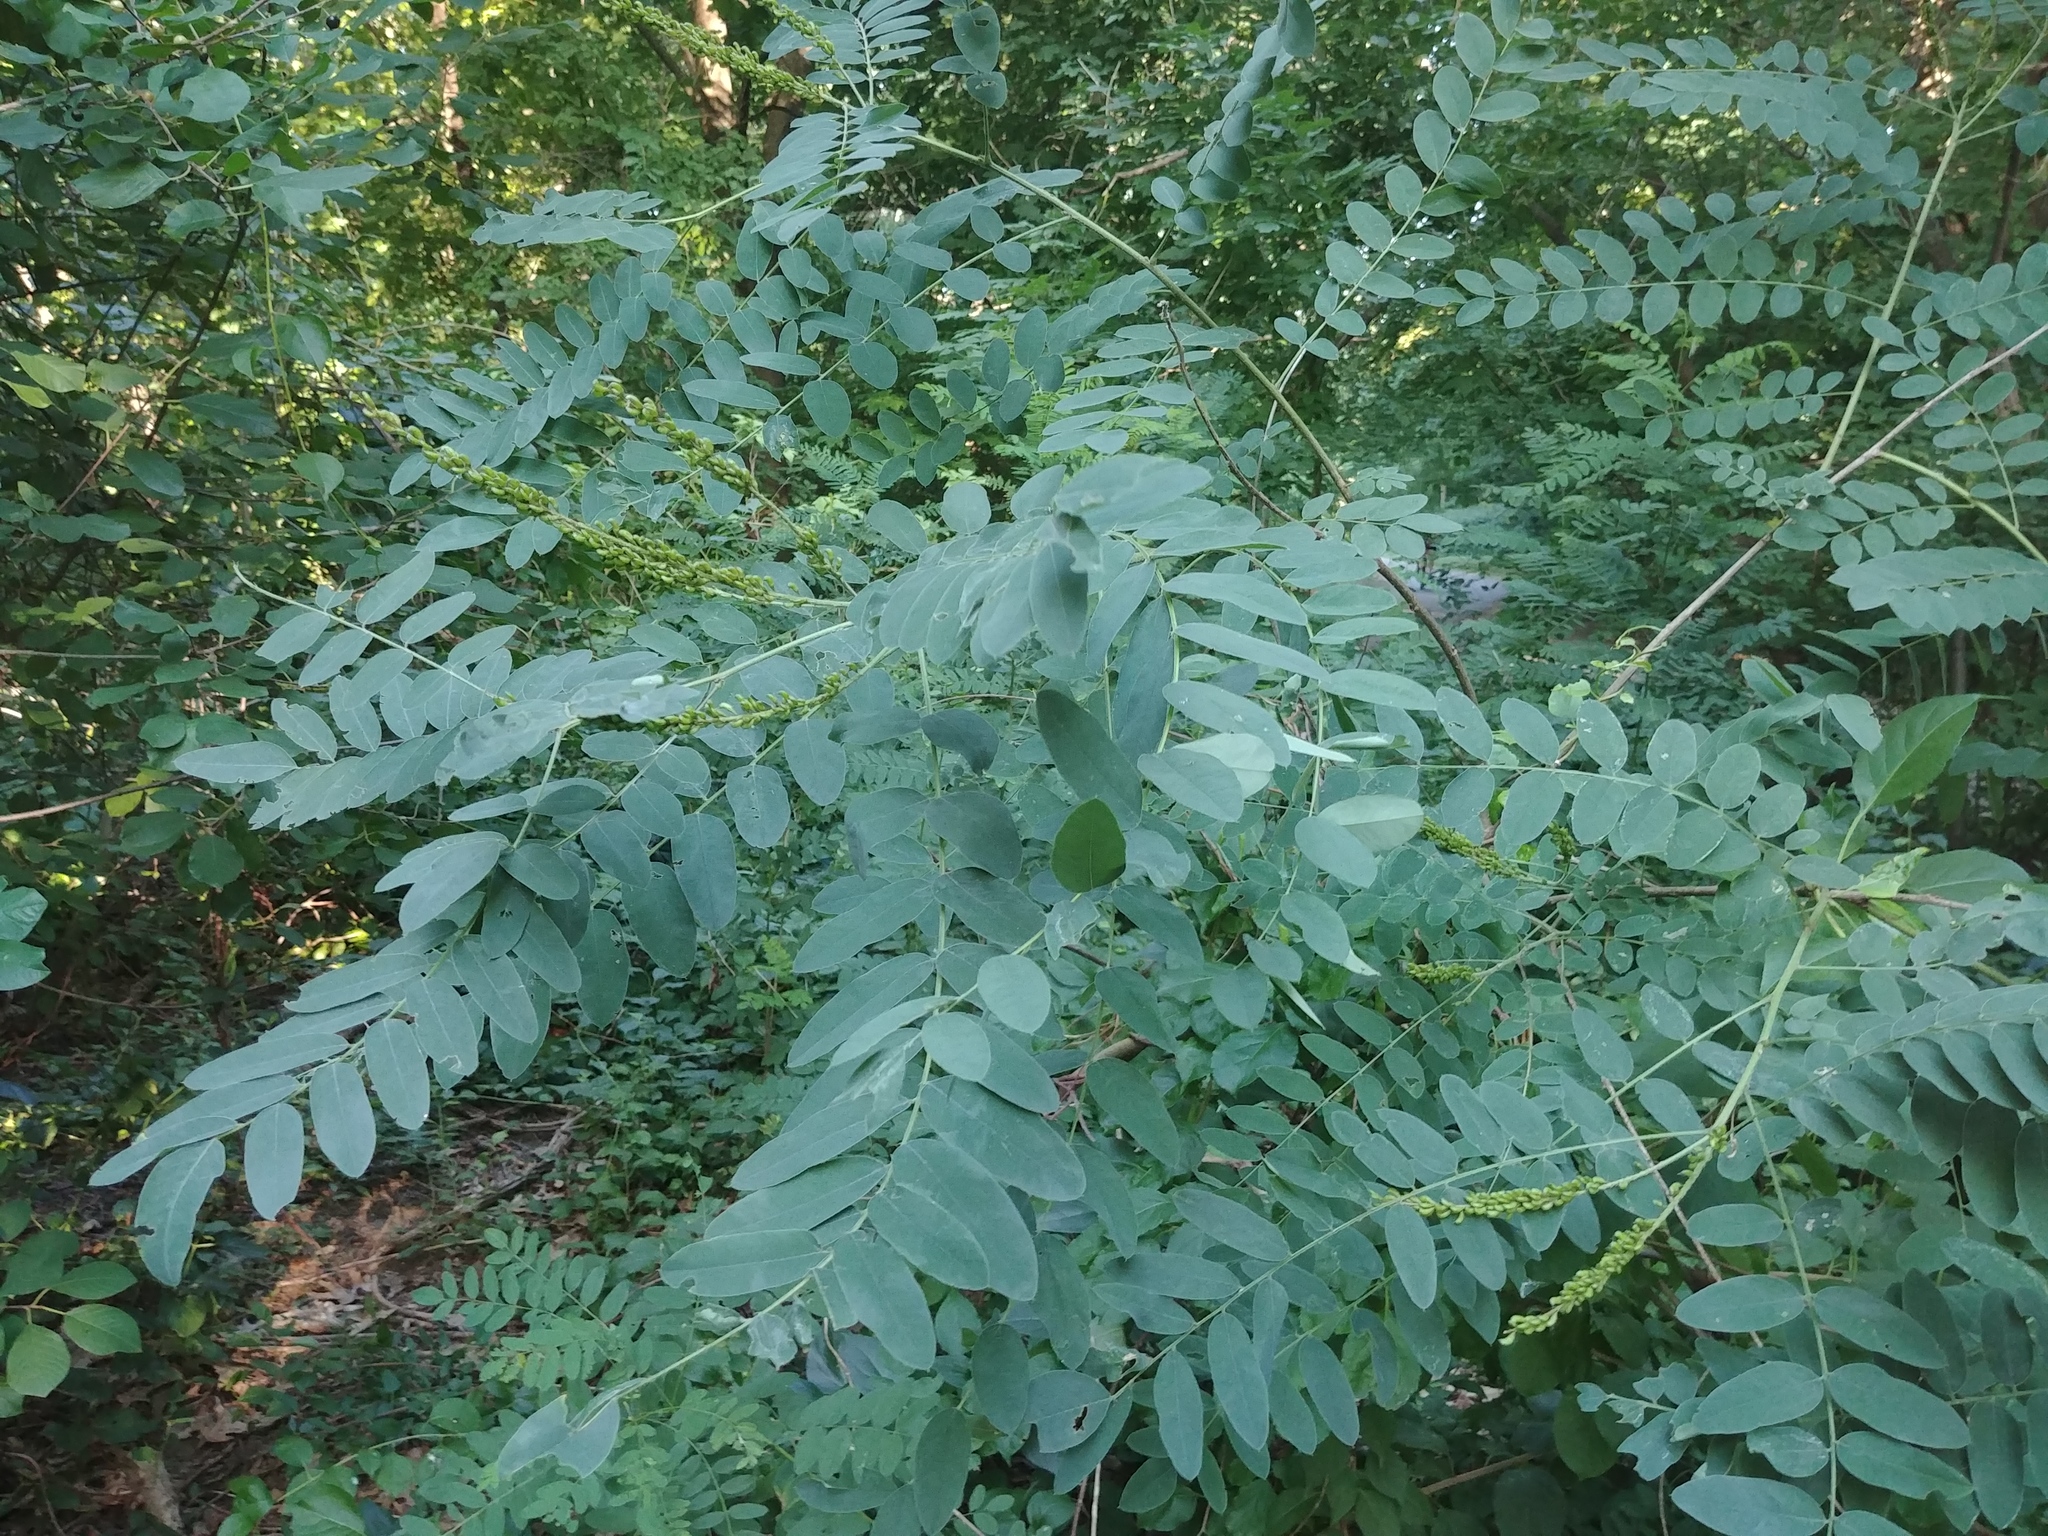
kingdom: Plantae
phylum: Tracheophyta
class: Magnoliopsida
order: Fabales
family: Fabaceae
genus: Robinia
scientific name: Robinia pseudoacacia
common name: Black locust
